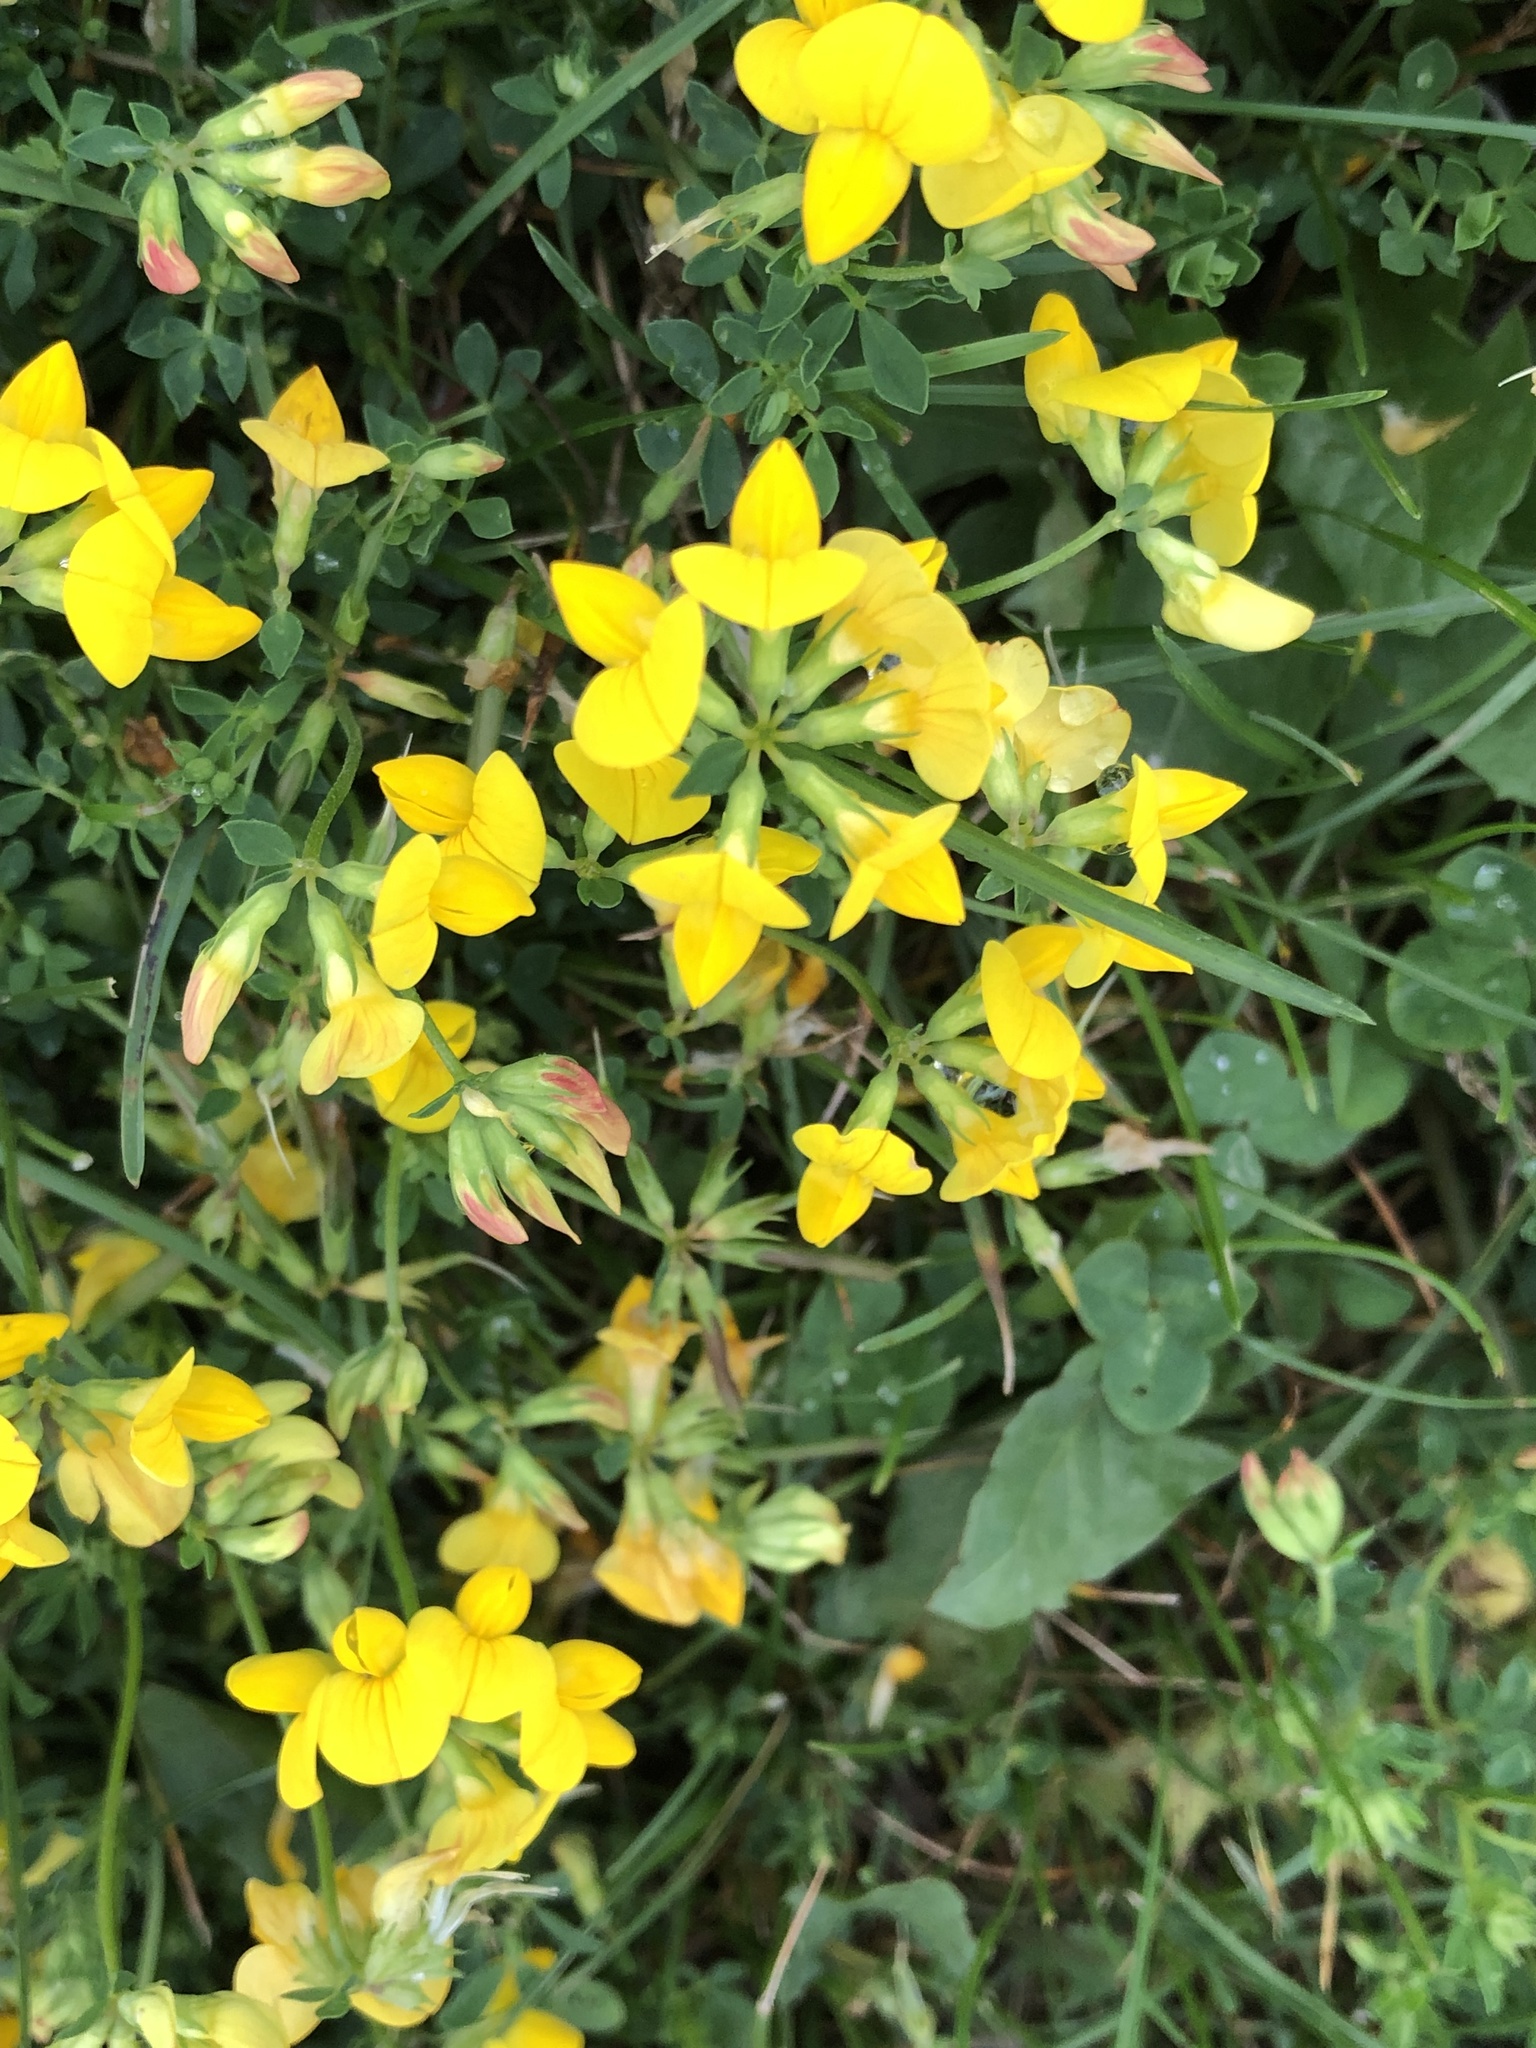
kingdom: Plantae
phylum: Tracheophyta
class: Magnoliopsida
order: Fabales
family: Fabaceae
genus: Lotus
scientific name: Lotus corniculatus
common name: Common bird's-foot-trefoil
